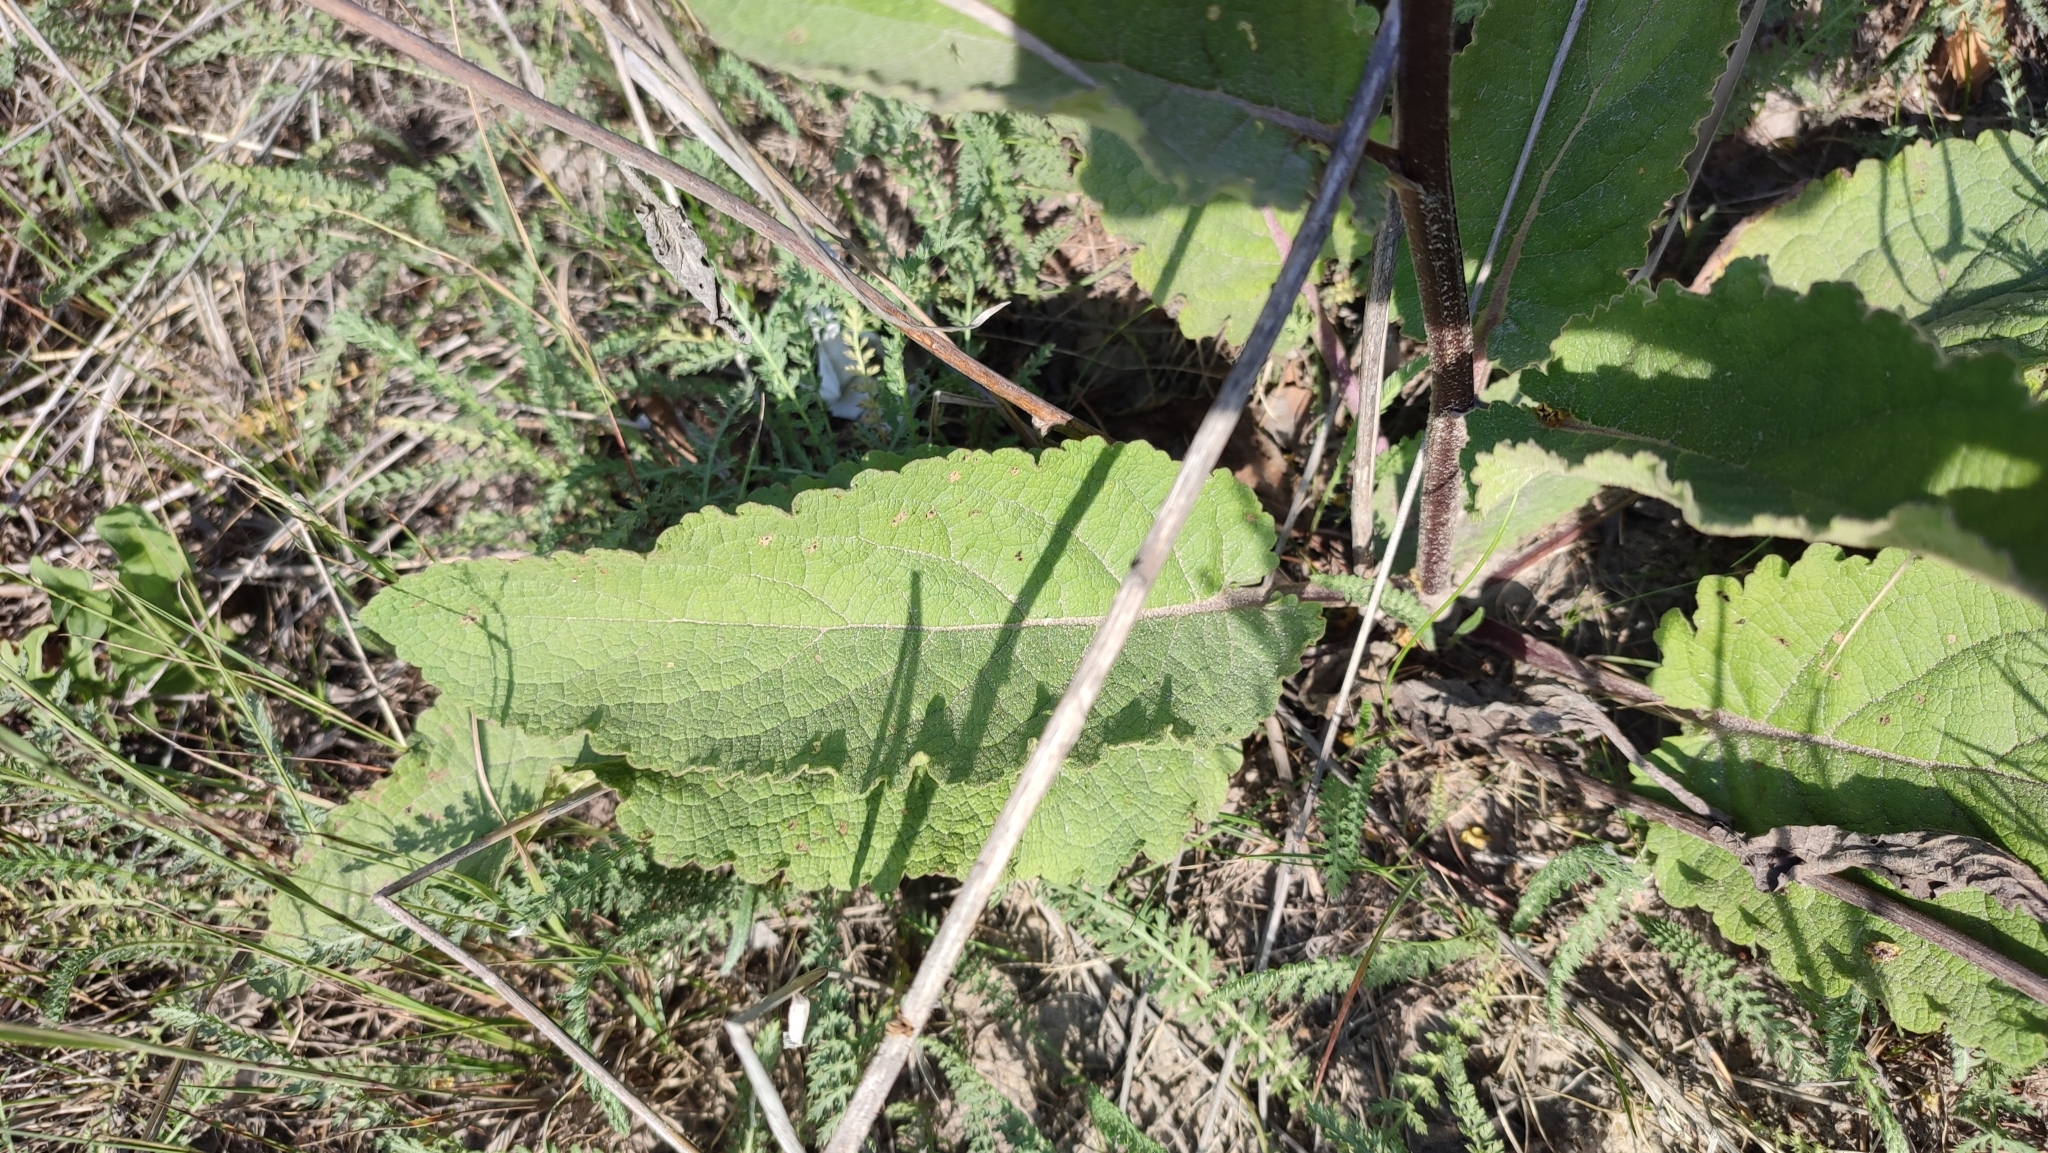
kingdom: Plantae
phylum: Tracheophyta
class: Magnoliopsida
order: Lamiales
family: Scrophulariaceae
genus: Verbascum
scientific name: Verbascum nigrum
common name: Dark mullein
